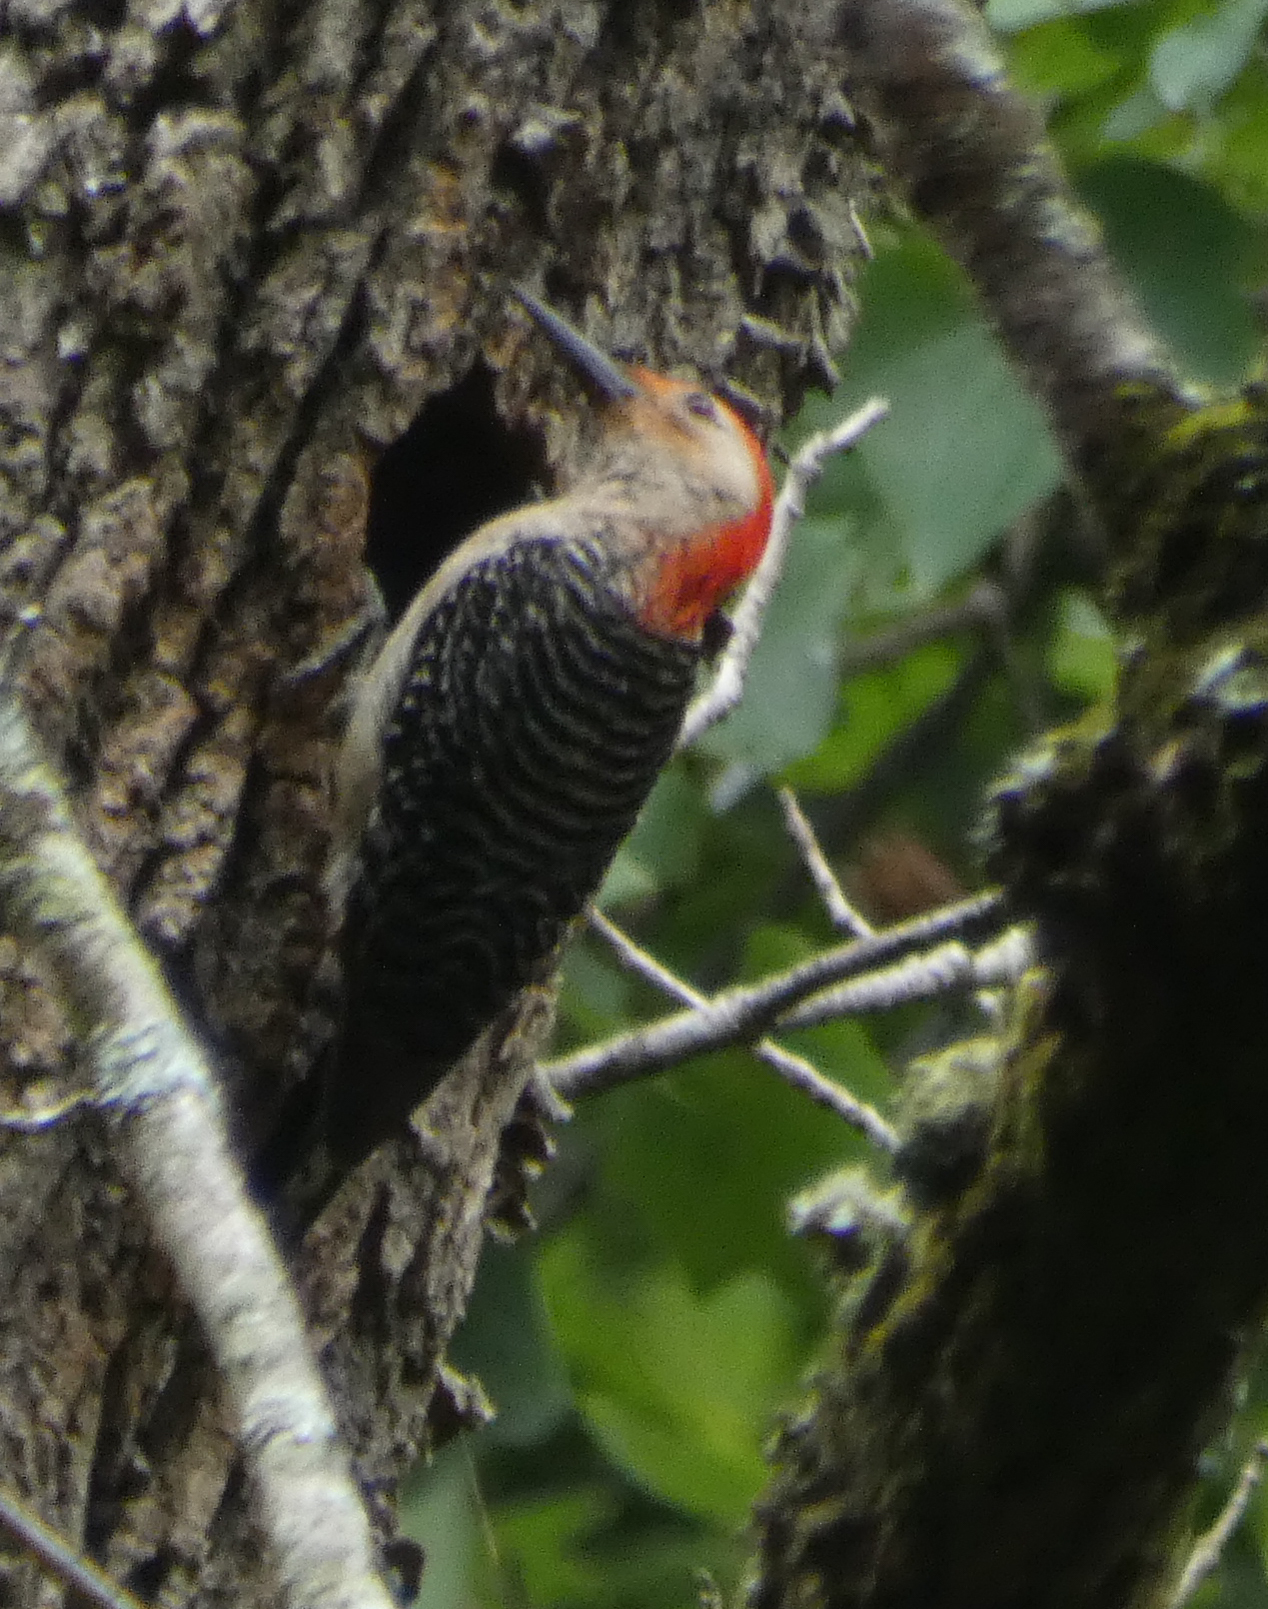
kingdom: Animalia
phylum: Chordata
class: Aves
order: Piciformes
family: Picidae
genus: Melanerpes
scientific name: Melanerpes carolinus
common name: Red-bellied woodpecker
